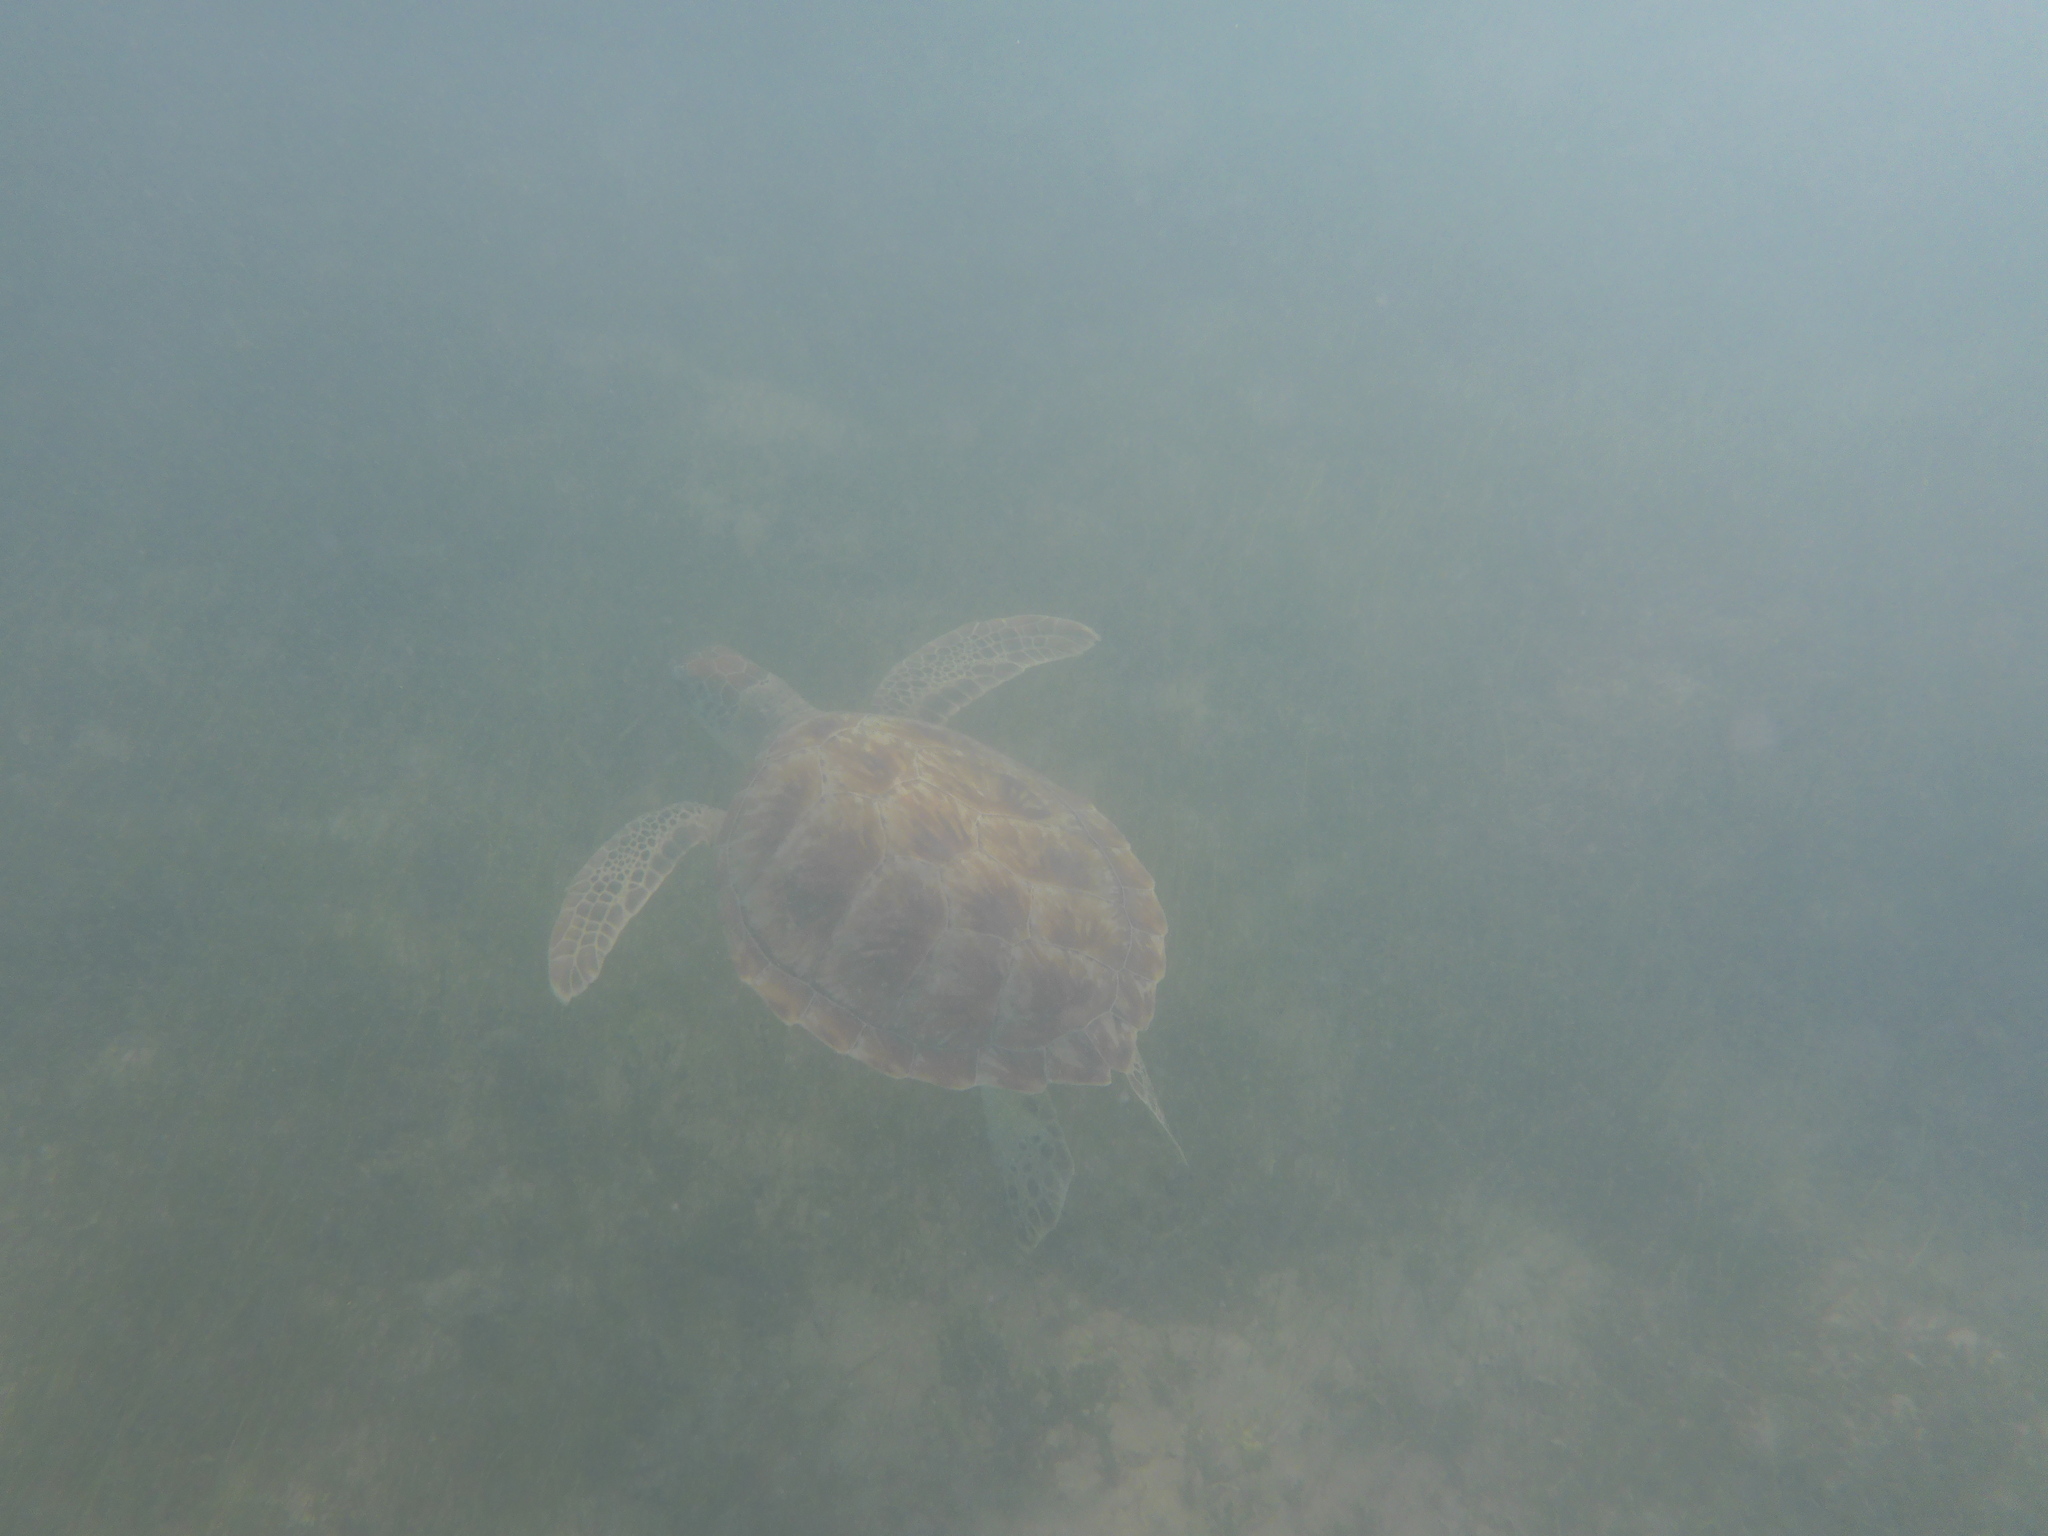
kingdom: Animalia
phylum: Chordata
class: Testudines
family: Cheloniidae
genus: Chelonia
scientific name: Chelonia mydas
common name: Green turtle
